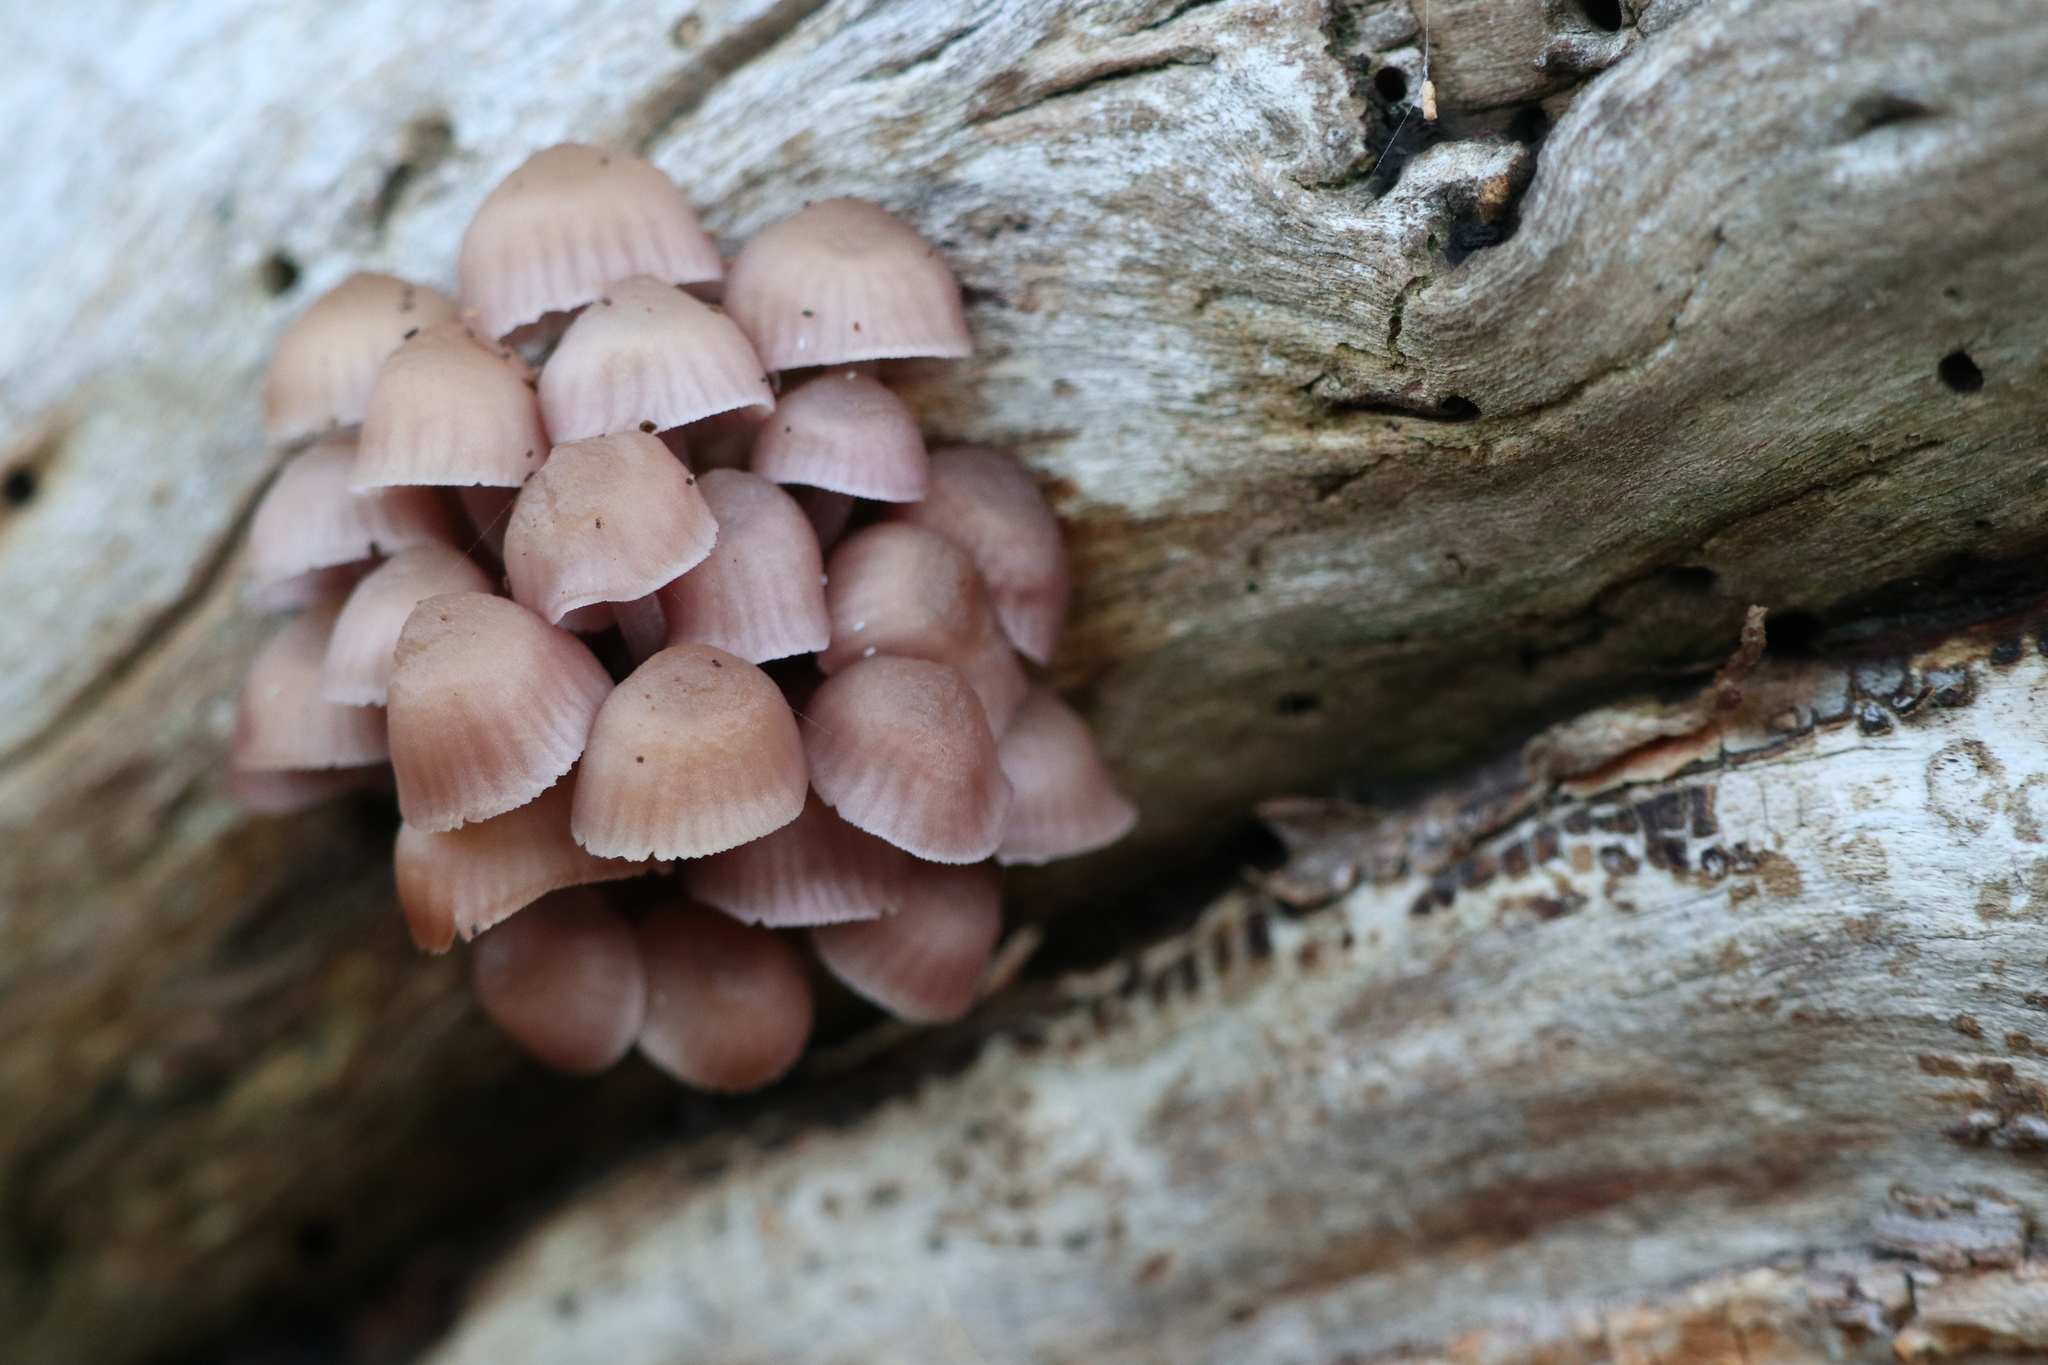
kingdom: Fungi
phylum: Basidiomycota
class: Agaricomycetes
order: Agaricales
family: Mycenaceae
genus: Mycena
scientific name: Mycena clarkeana
